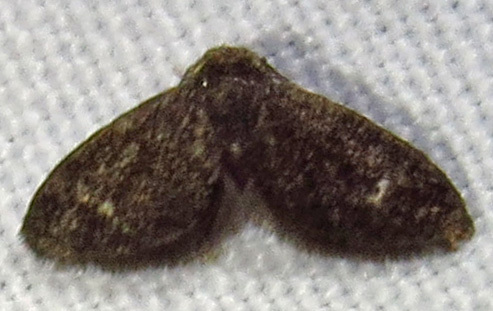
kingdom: Animalia
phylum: Arthropoda
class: Insecta
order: Lepidoptera
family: Epipyropidae
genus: Fulgoraecia
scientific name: Fulgoraecia exigua
